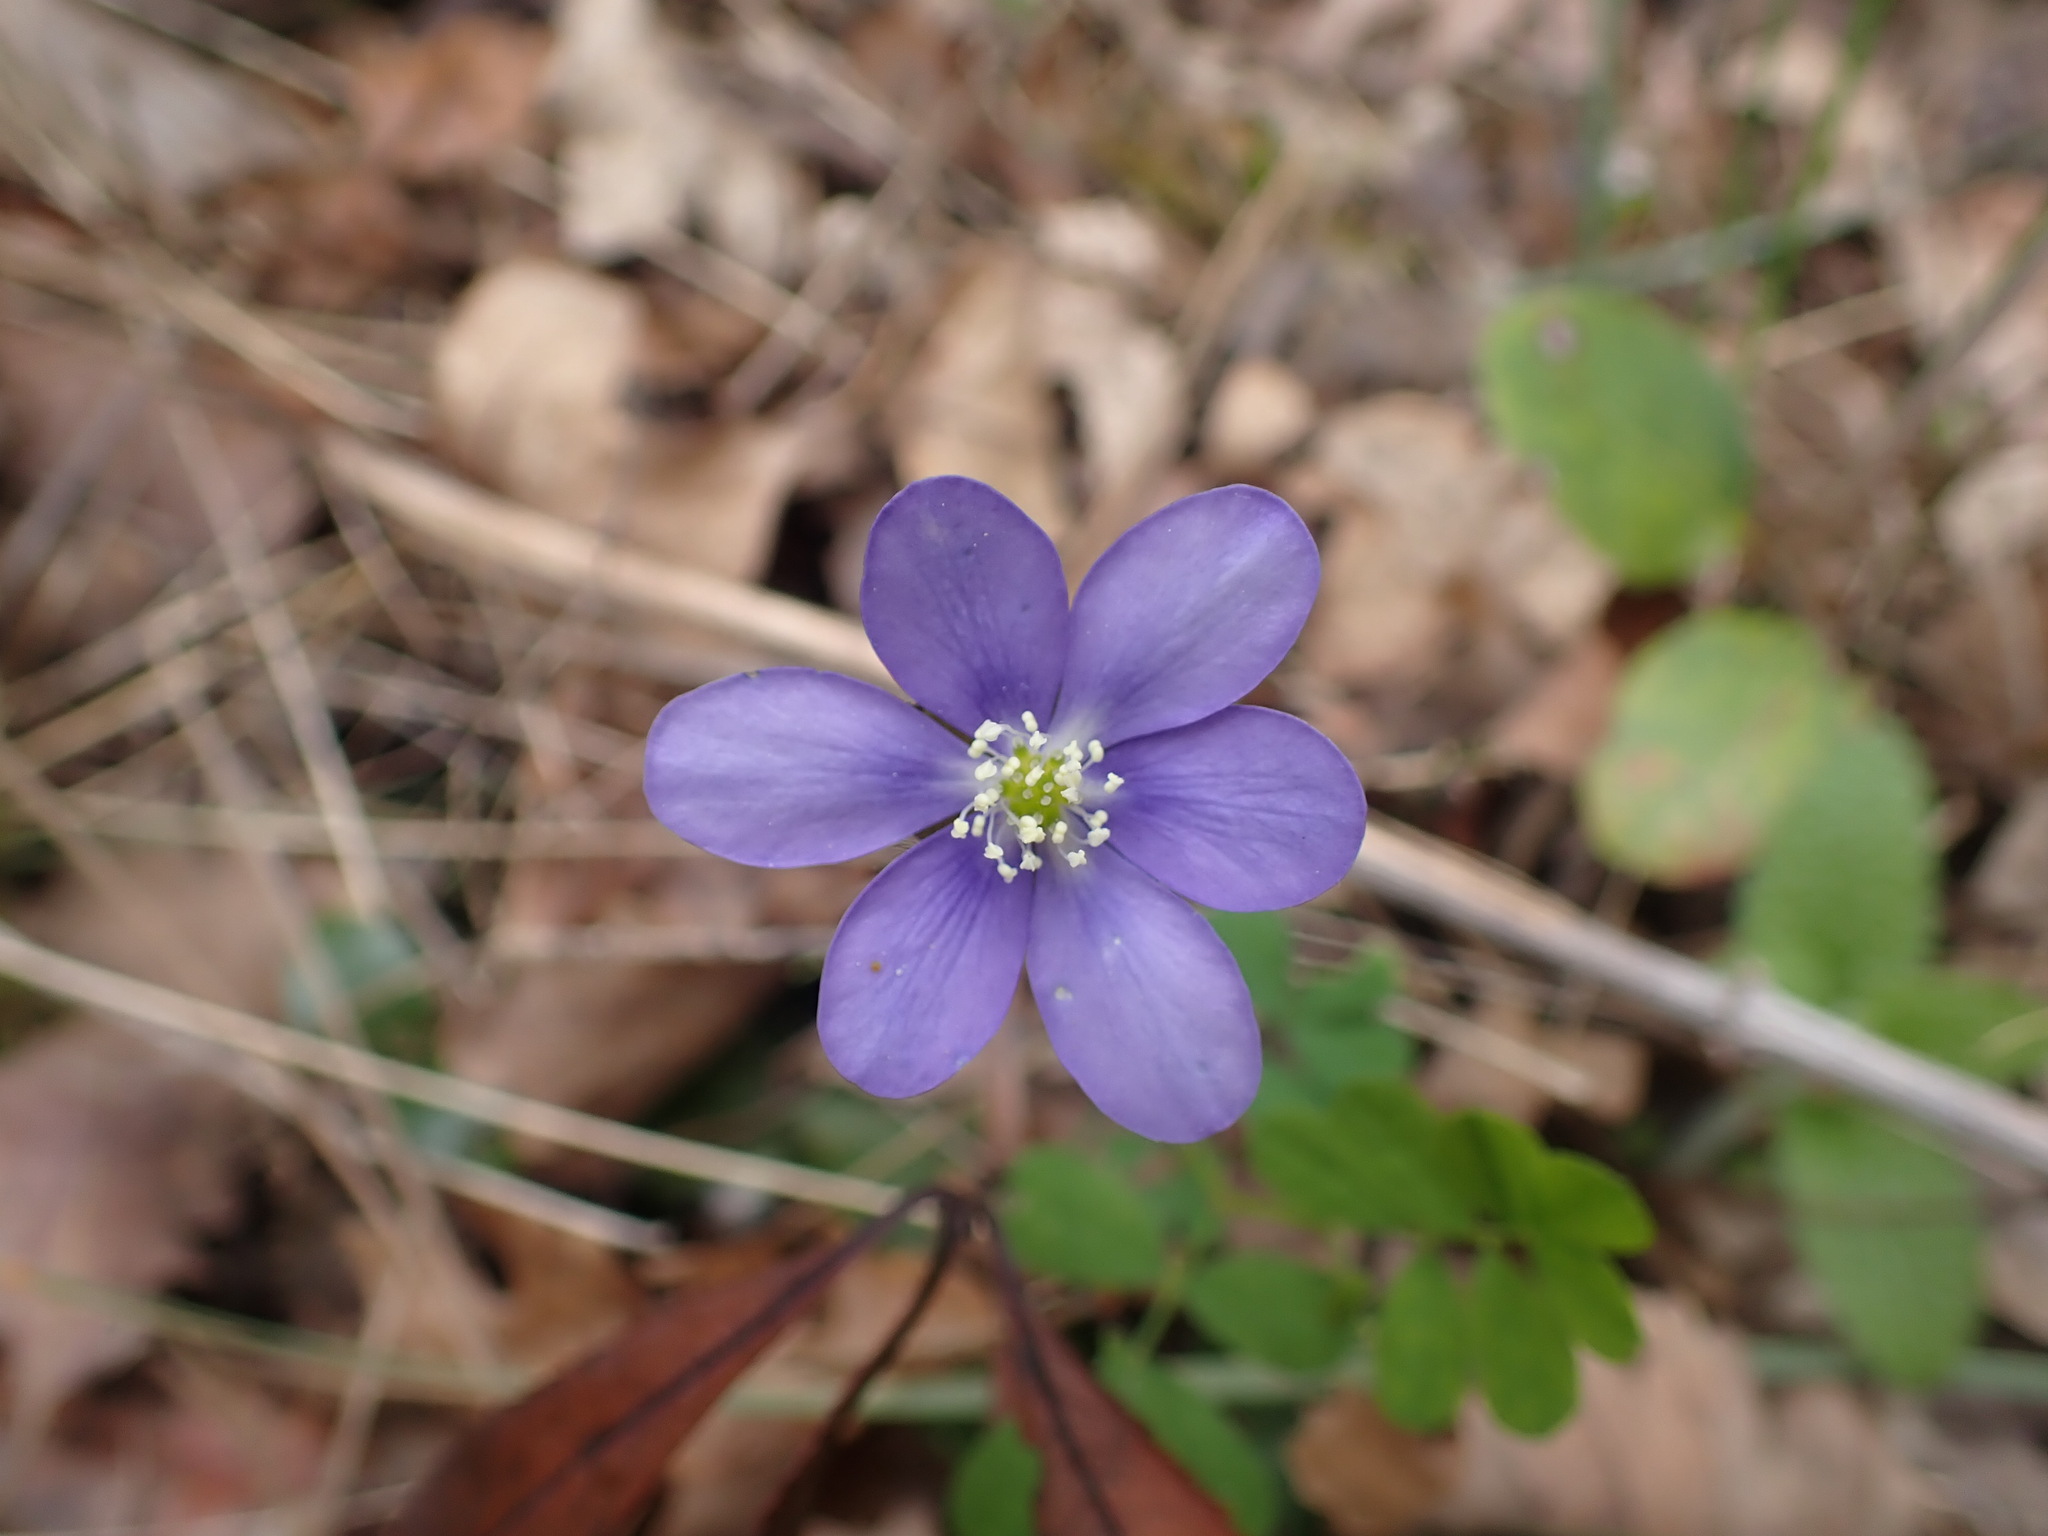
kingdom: Plantae
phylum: Tracheophyta
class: Magnoliopsida
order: Ranunculales
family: Ranunculaceae
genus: Hepatica
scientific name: Hepatica nobilis
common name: Liverleaf
